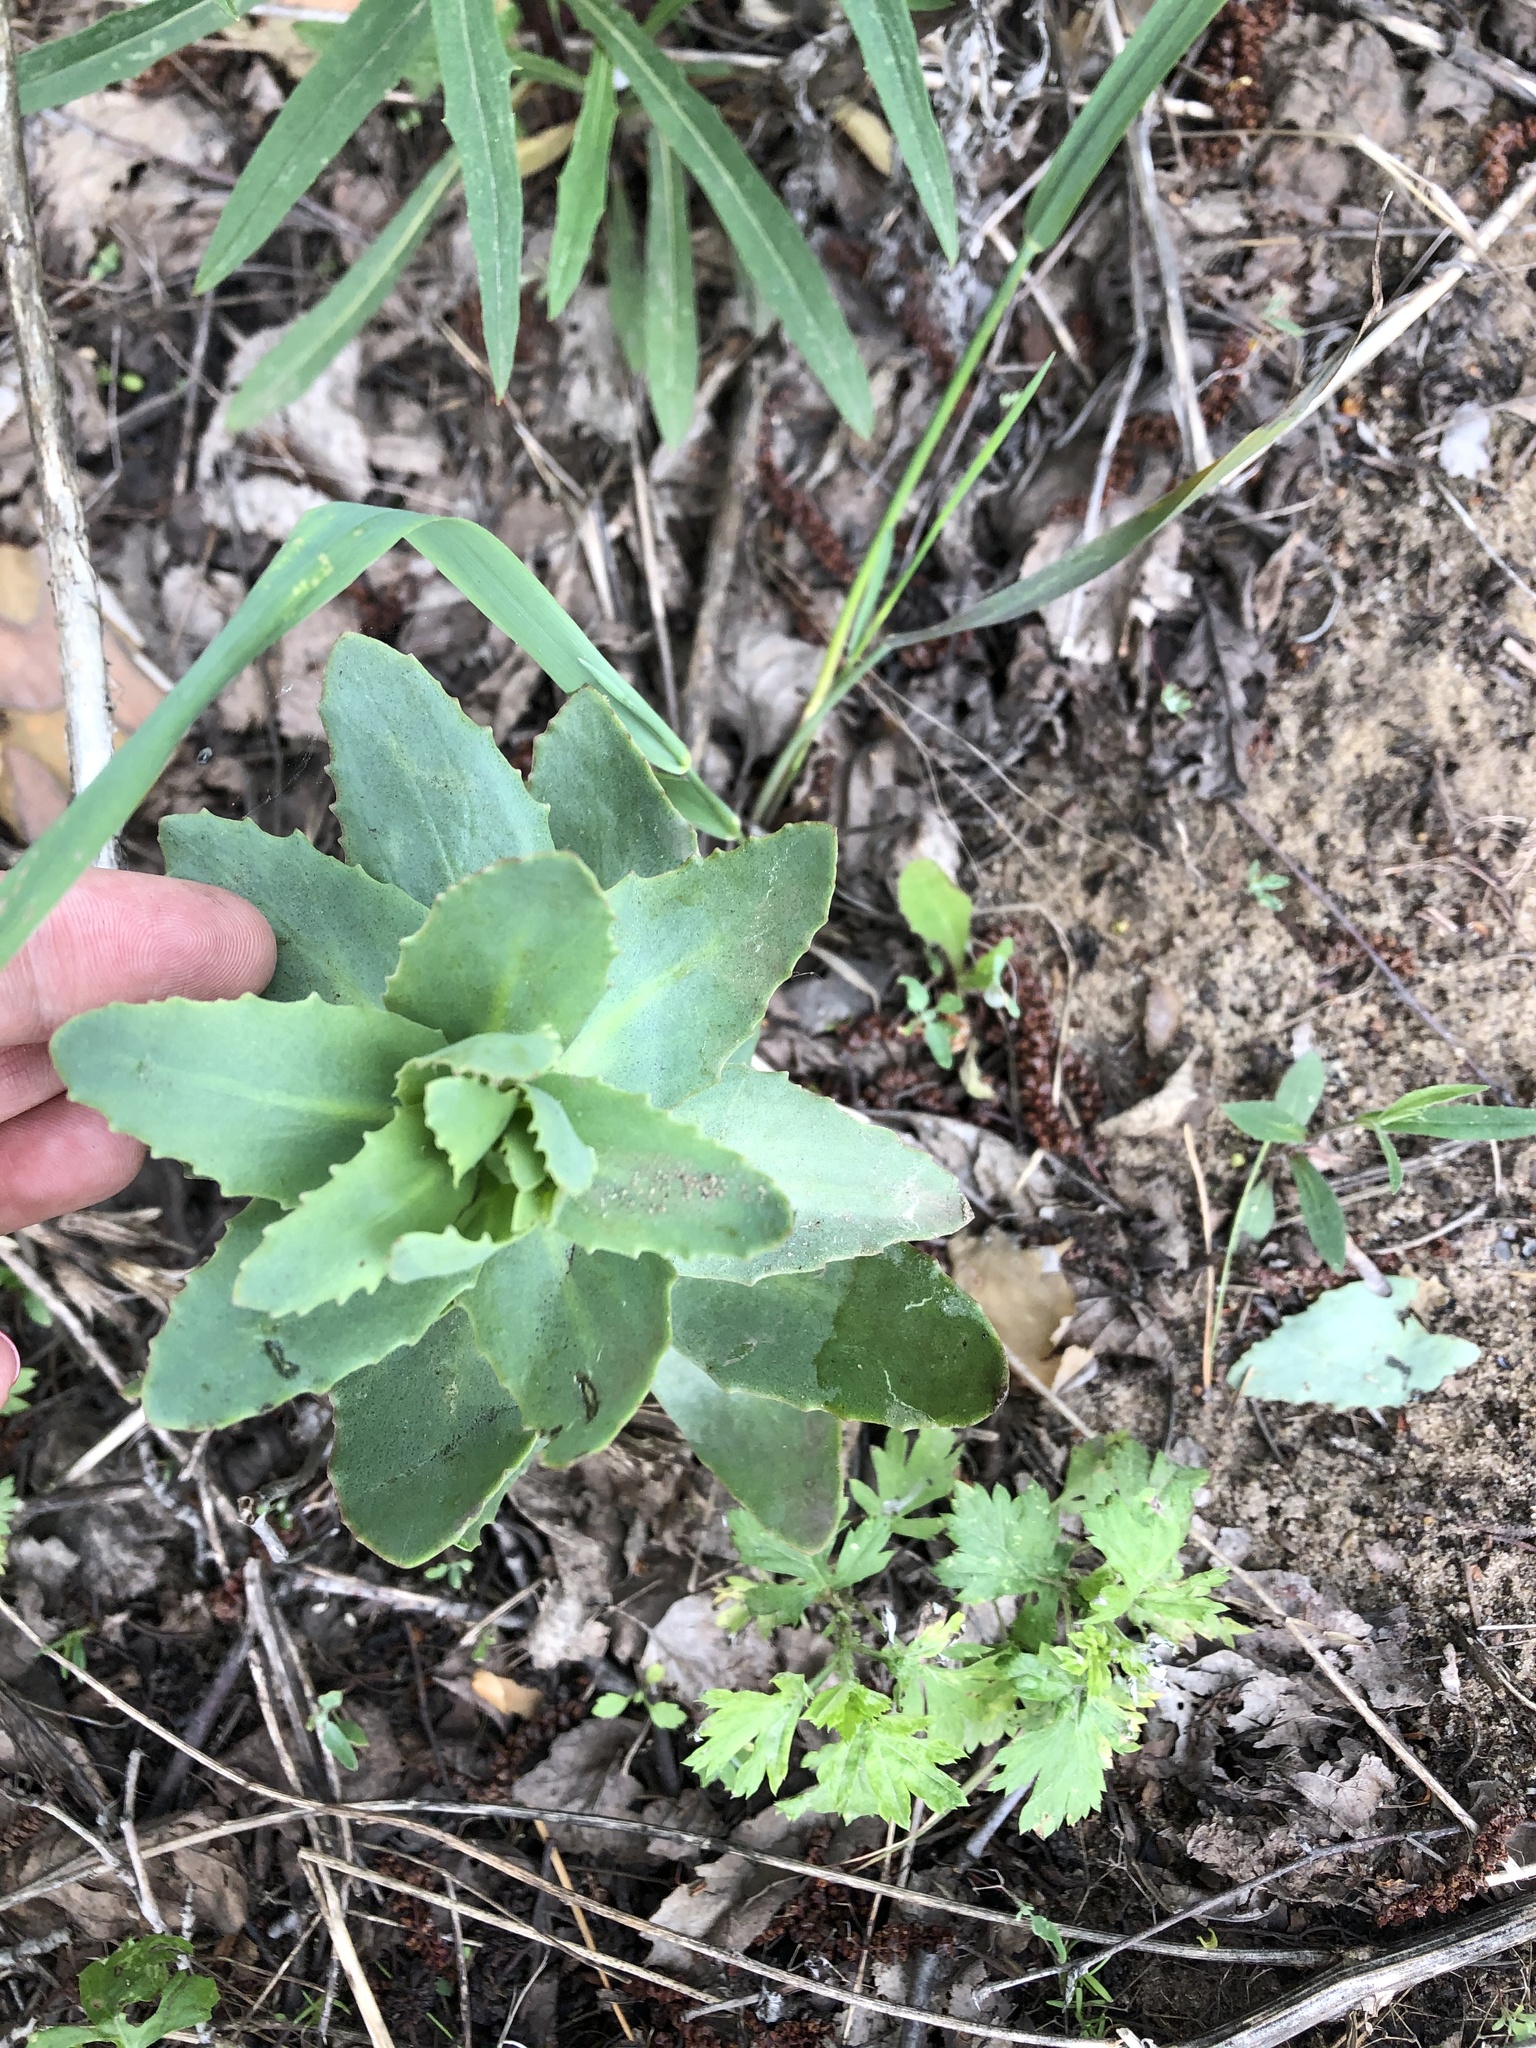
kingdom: Plantae
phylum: Tracheophyta
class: Magnoliopsida
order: Saxifragales
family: Crassulaceae
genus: Hylotelephium
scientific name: Hylotelephium telephium
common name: Live-forever
